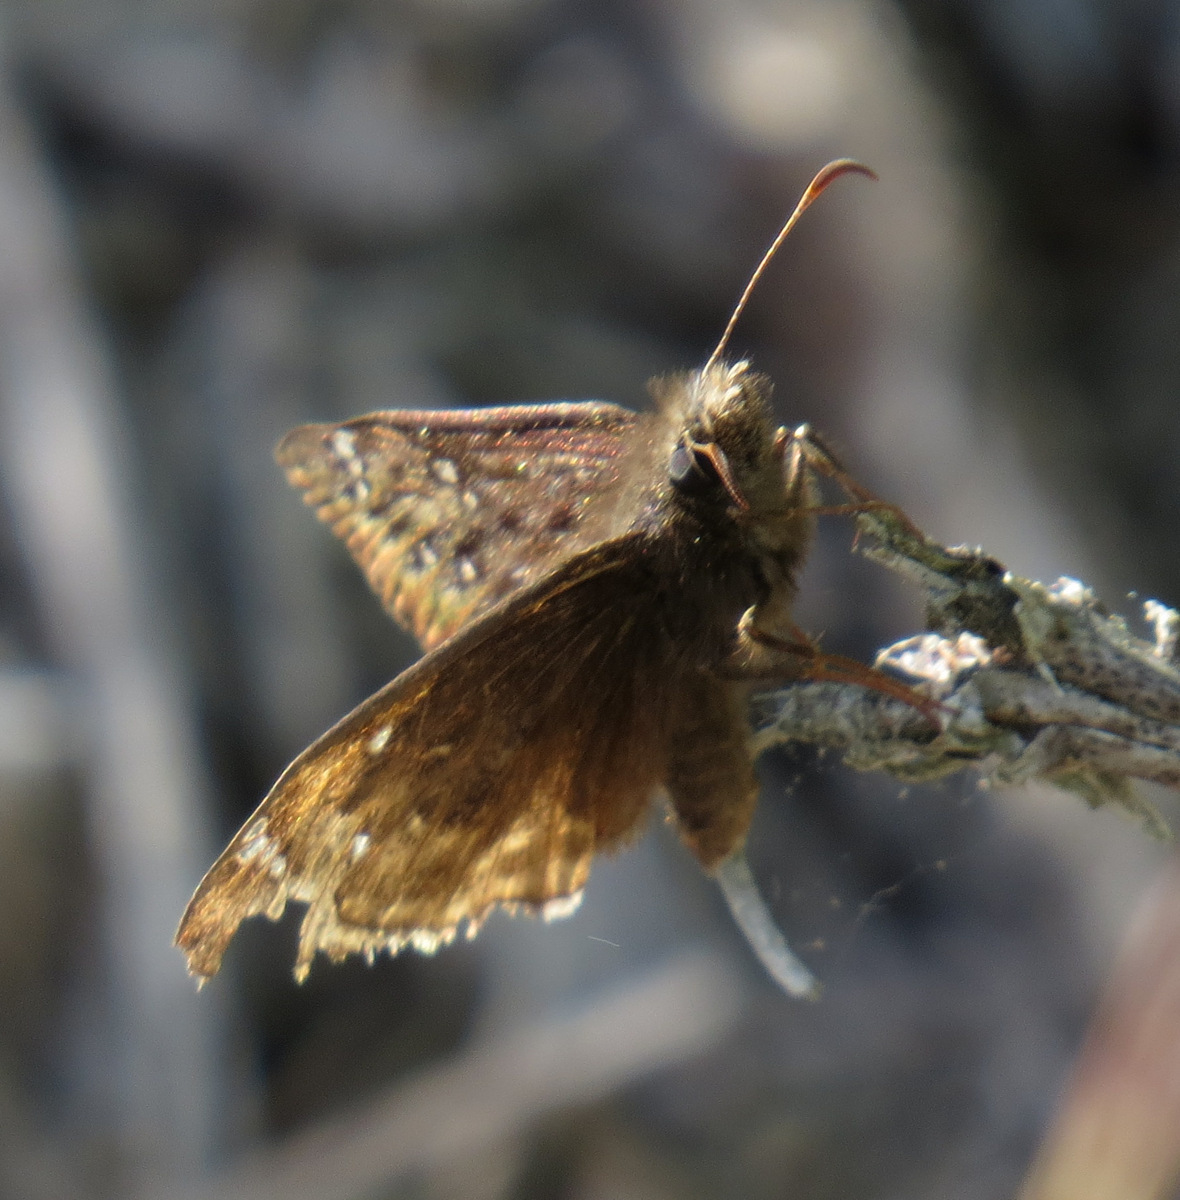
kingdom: Animalia
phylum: Arthropoda
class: Insecta
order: Lepidoptera
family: Hesperiidae
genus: Erynnis
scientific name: Erynnis juvenalis
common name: Juvenal's duskywing
